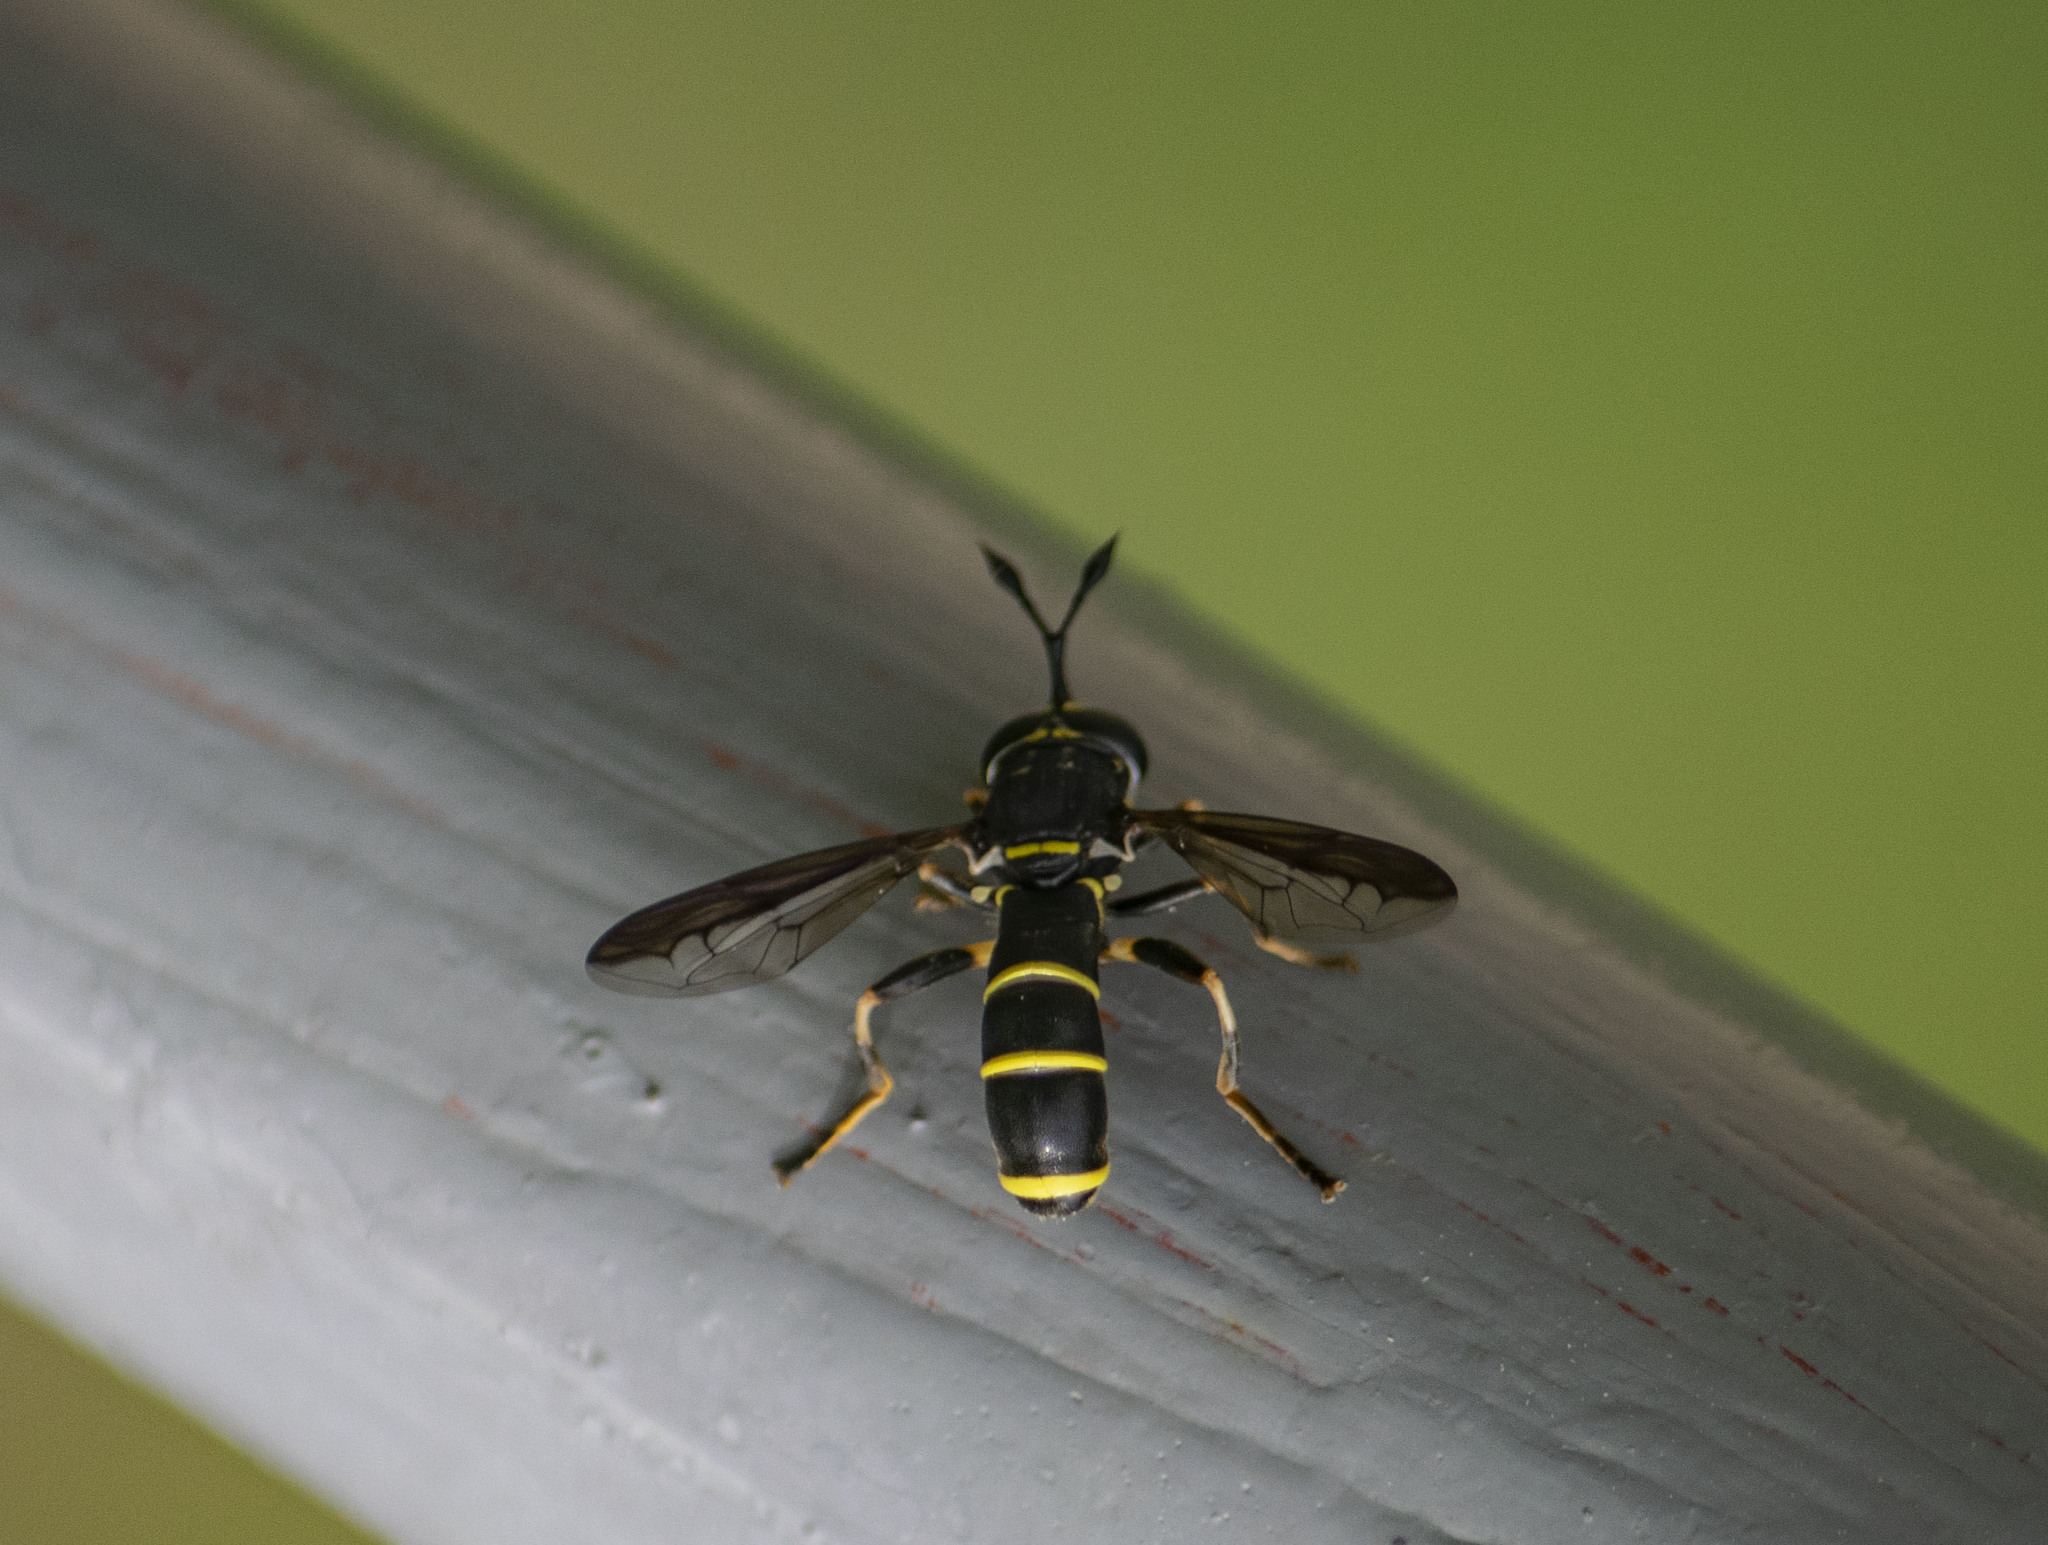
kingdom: Animalia
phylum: Arthropoda
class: Insecta
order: Diptera
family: Syrphidae
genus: Ceriana
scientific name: Ceriana conopsoides
